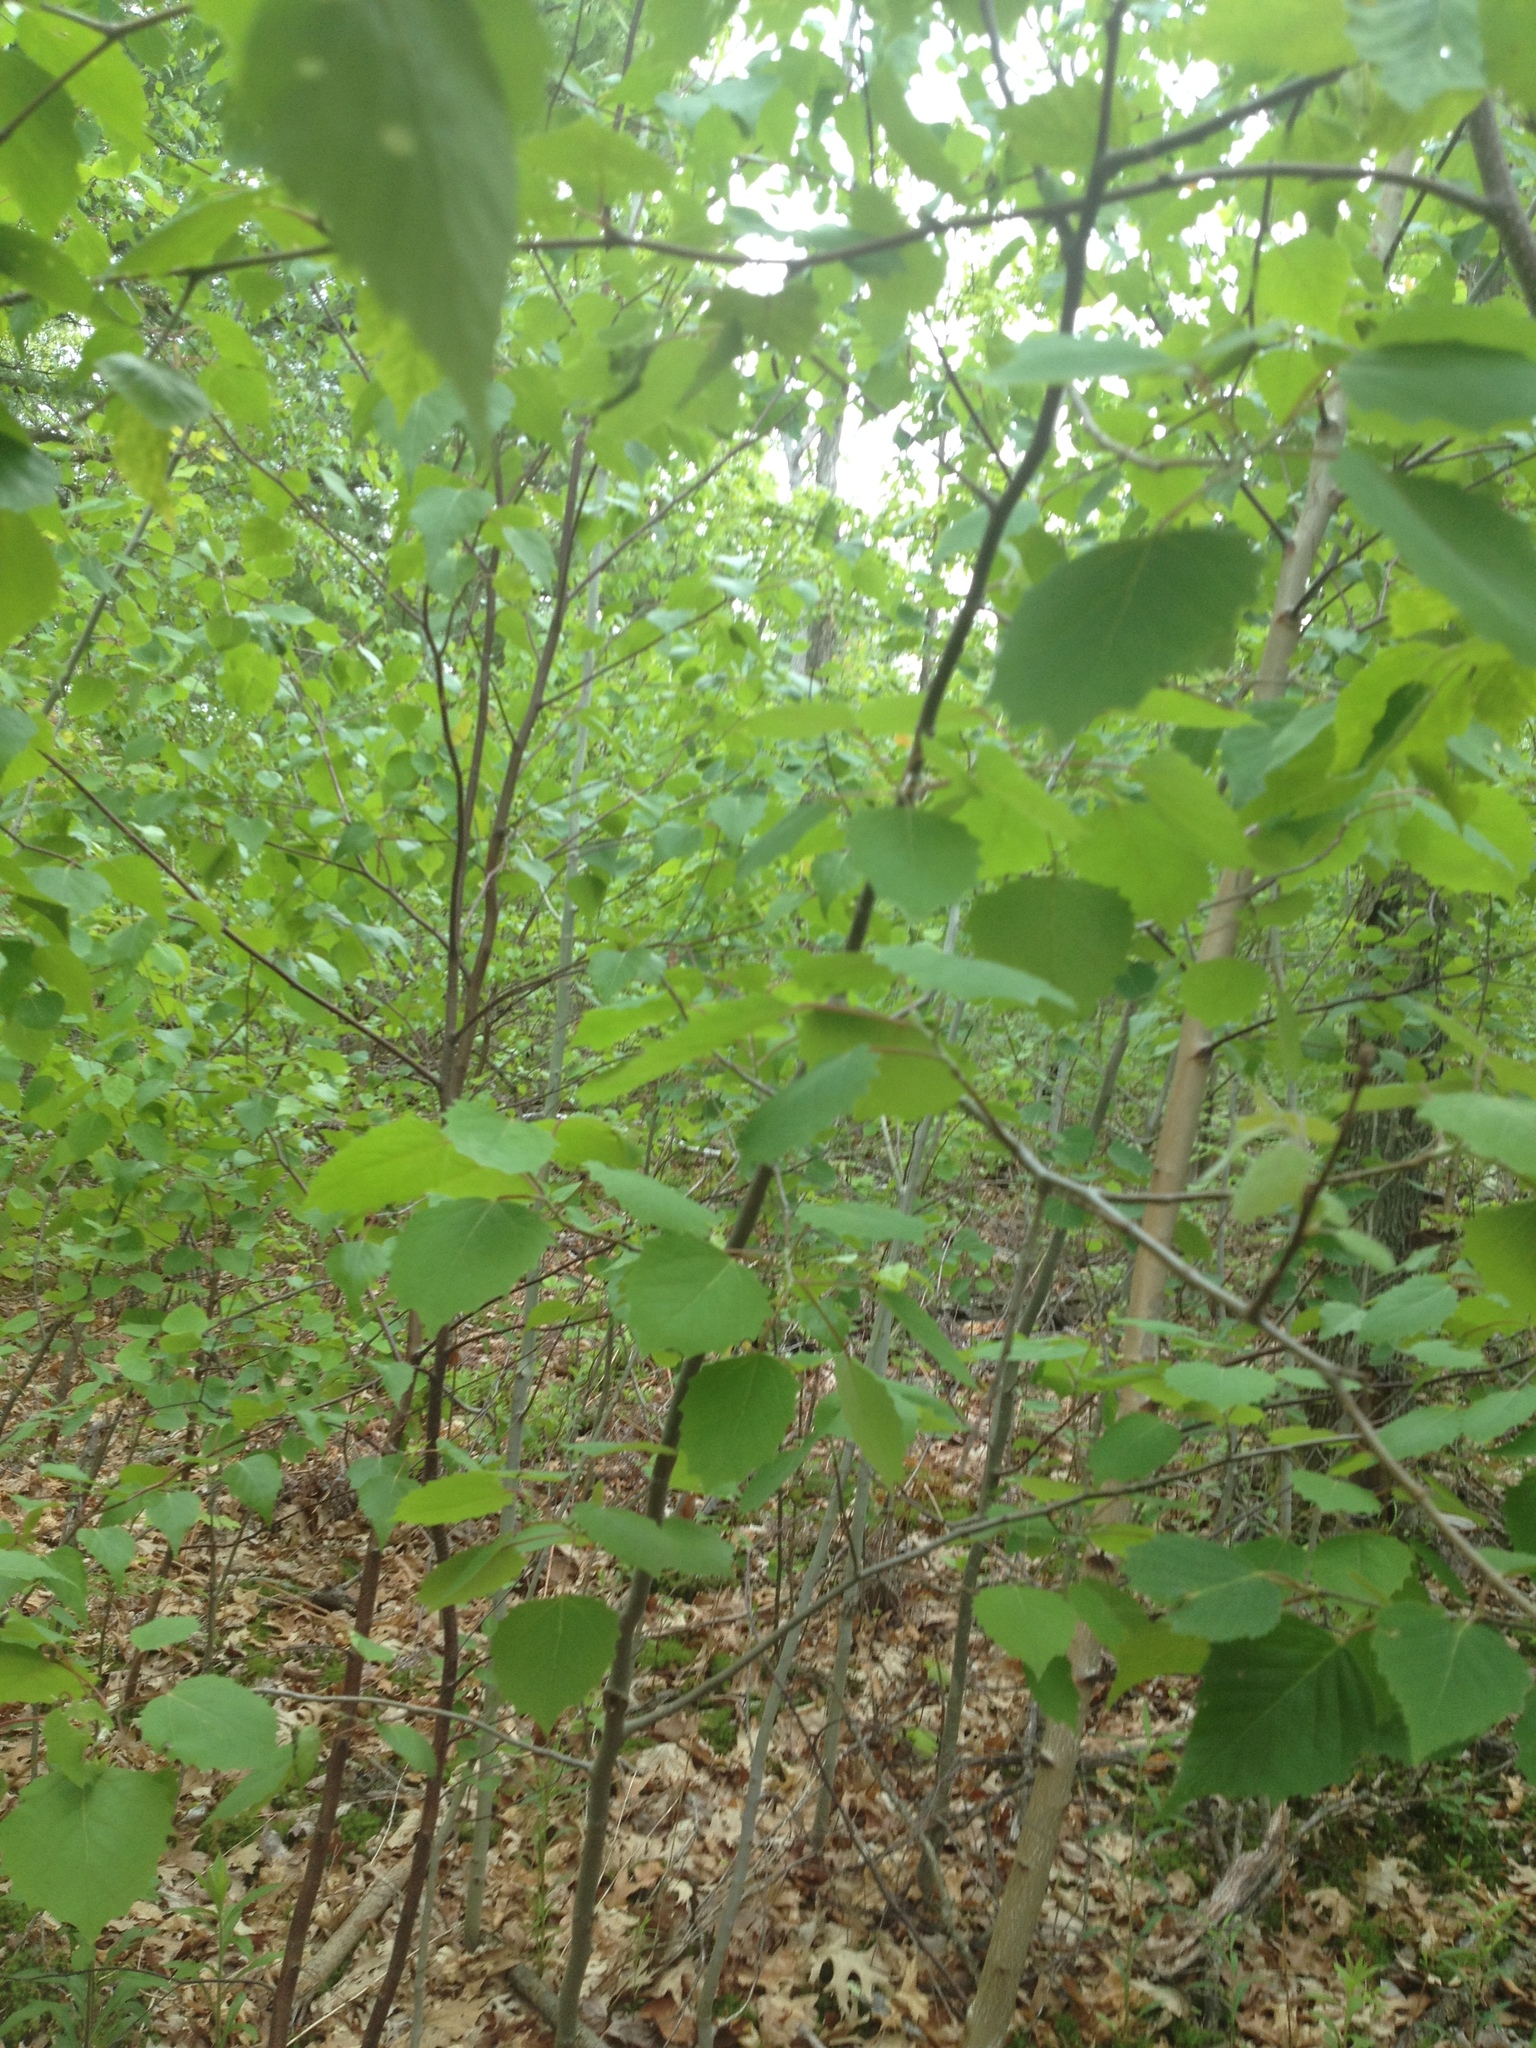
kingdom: Plantae
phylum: Tracheophyta
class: Magnoliopsida
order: Malpighiales
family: Salicaceae
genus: Populus
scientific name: Populus grandidentata
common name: Bigtooth aspen
